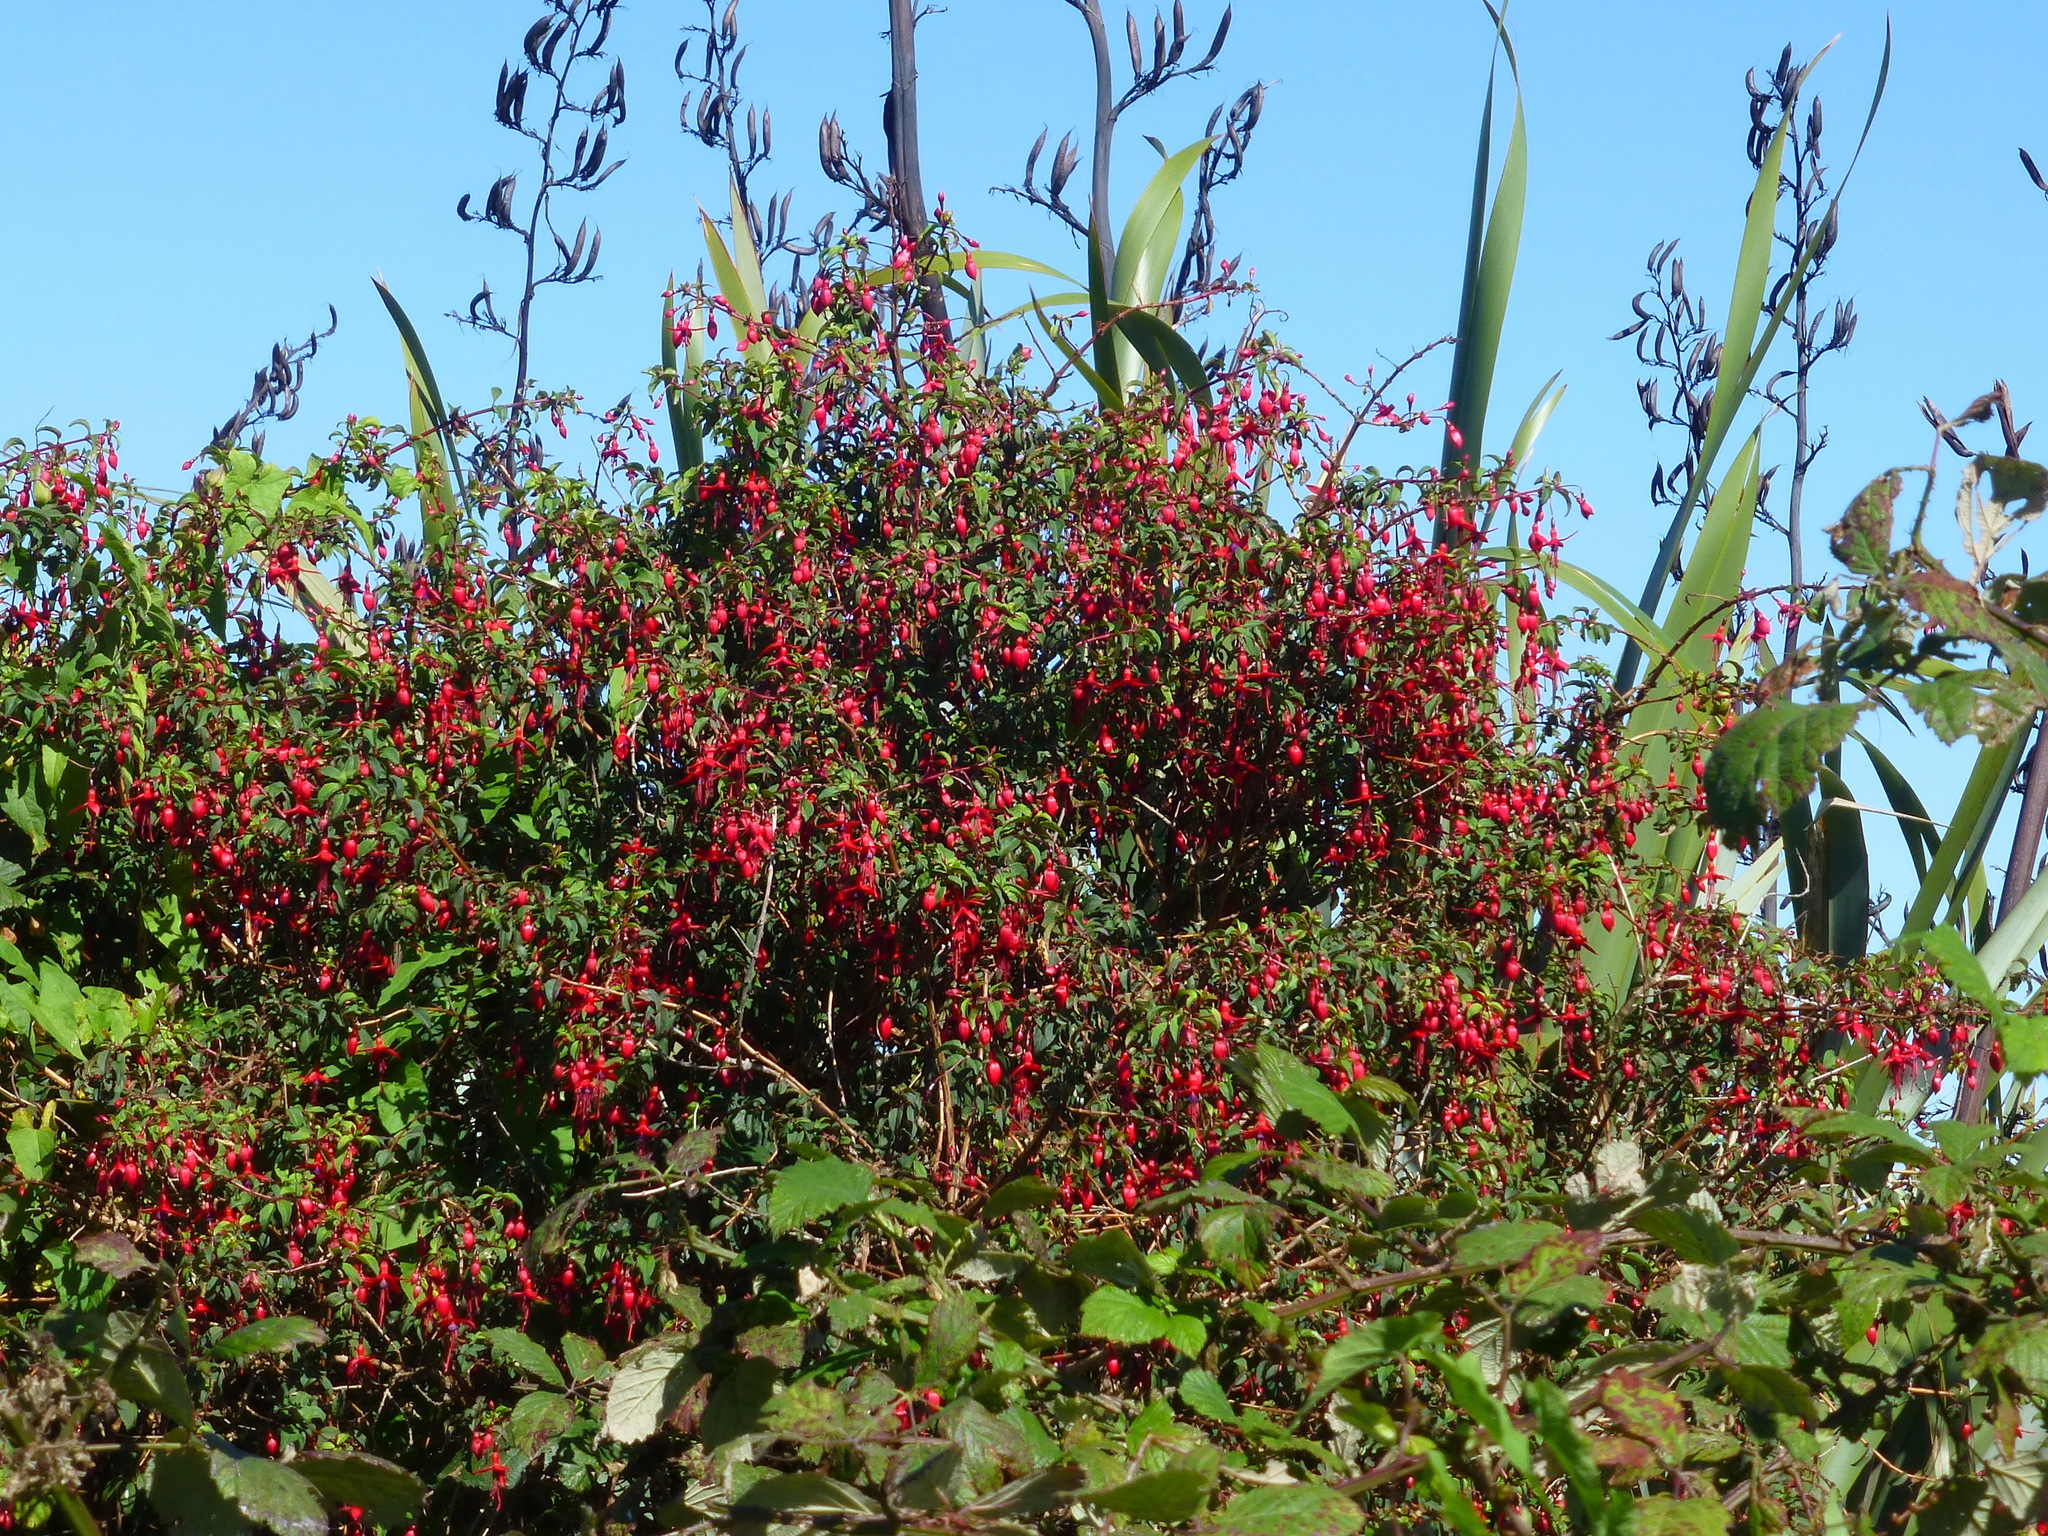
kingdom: Plantae
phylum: Tracheophyta
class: Magnoliopsida
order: Myrtales
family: Onagraceae
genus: Fuchsia
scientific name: Fuchsia magellanica
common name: Hardy fuchsia
